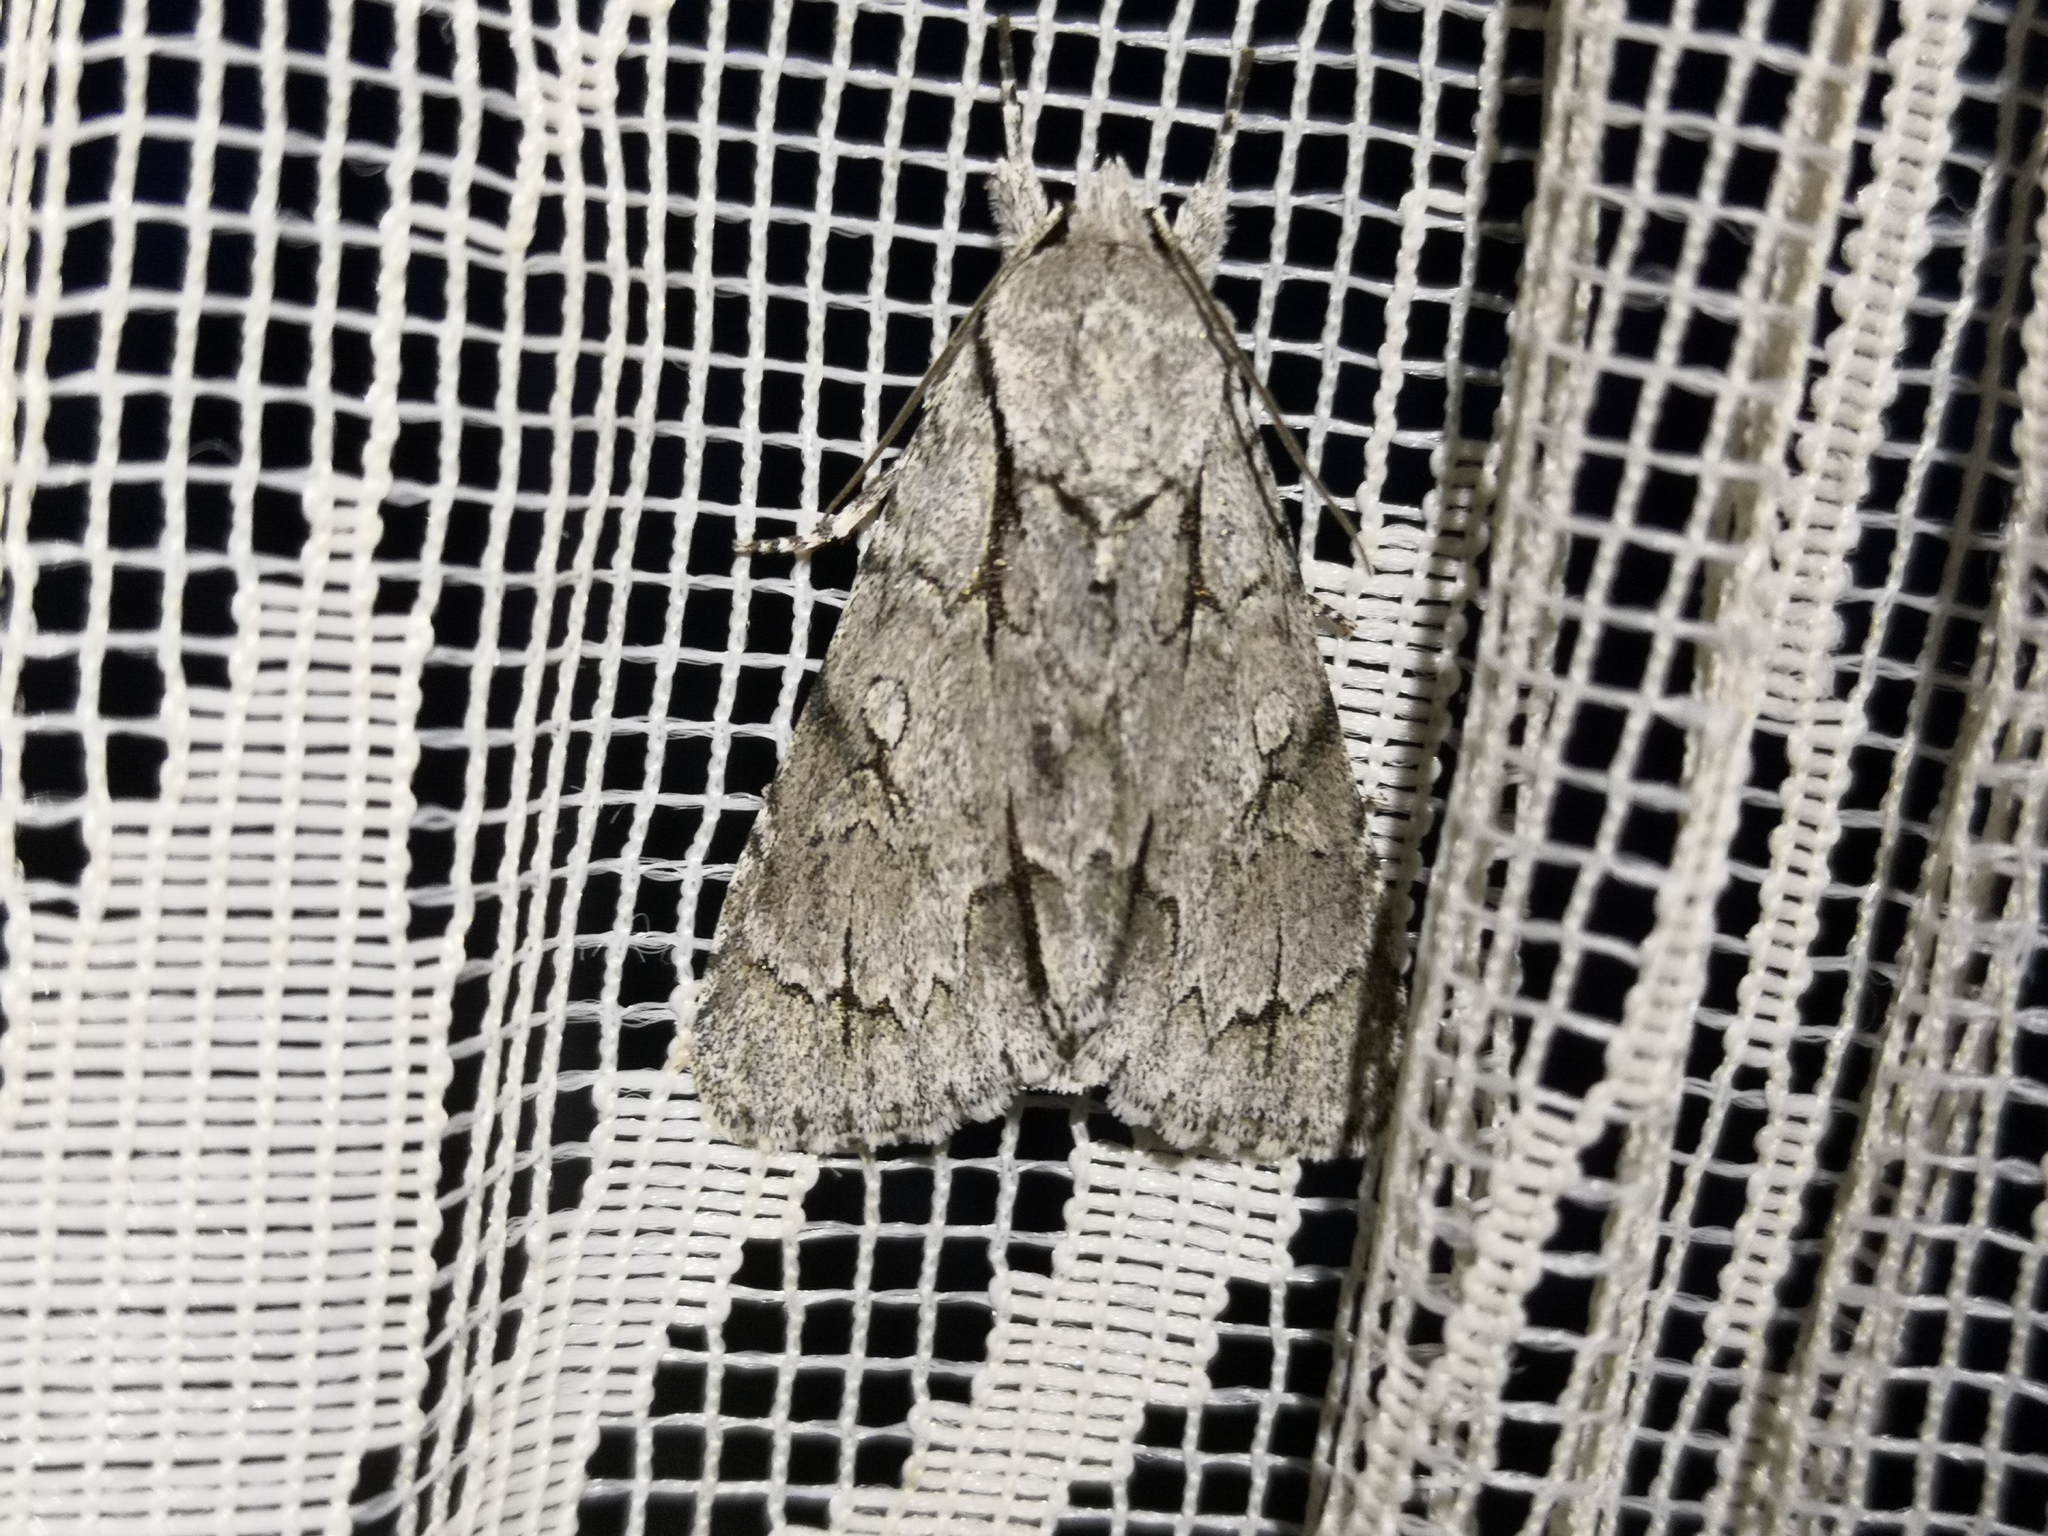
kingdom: Animalia
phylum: Arthropoda
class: Insecta
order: Lepidoptera
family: Noctuidae
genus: Acronicta
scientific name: Acronicta psi
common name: Grey dagger
